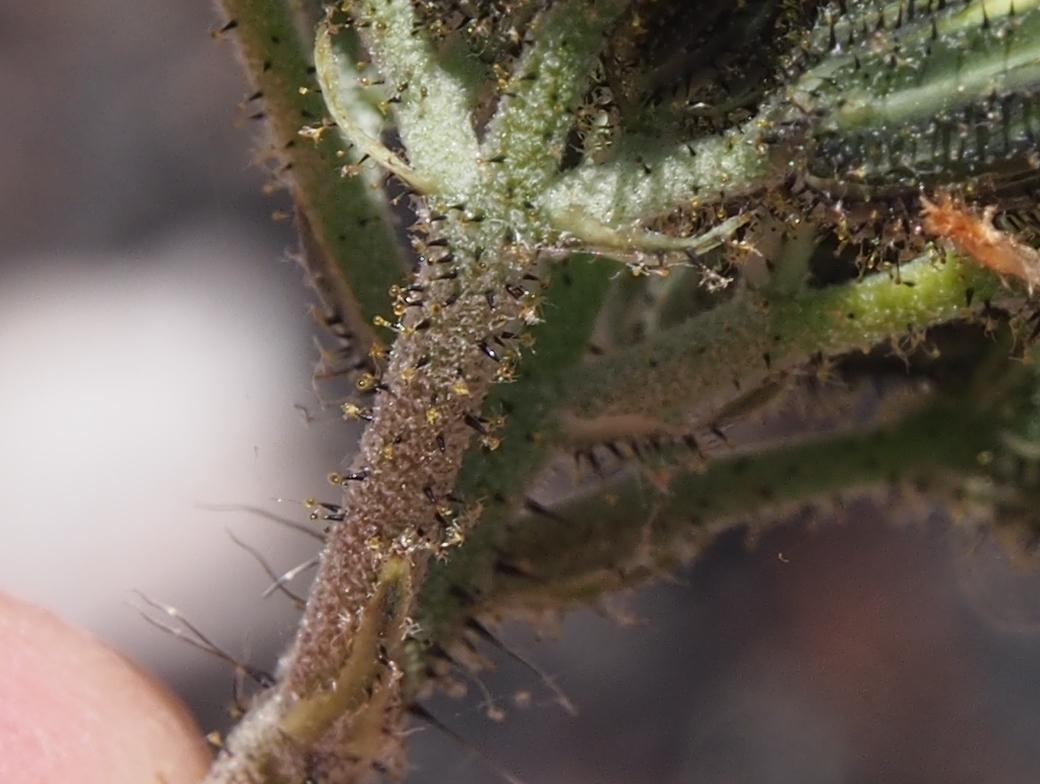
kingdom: Plantae
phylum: Tracheophyta
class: Magnoliopsida
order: Asterales
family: Asteraceae
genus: Pilosella
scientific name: Pilosella floribunda
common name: Glaucous hawkweed
